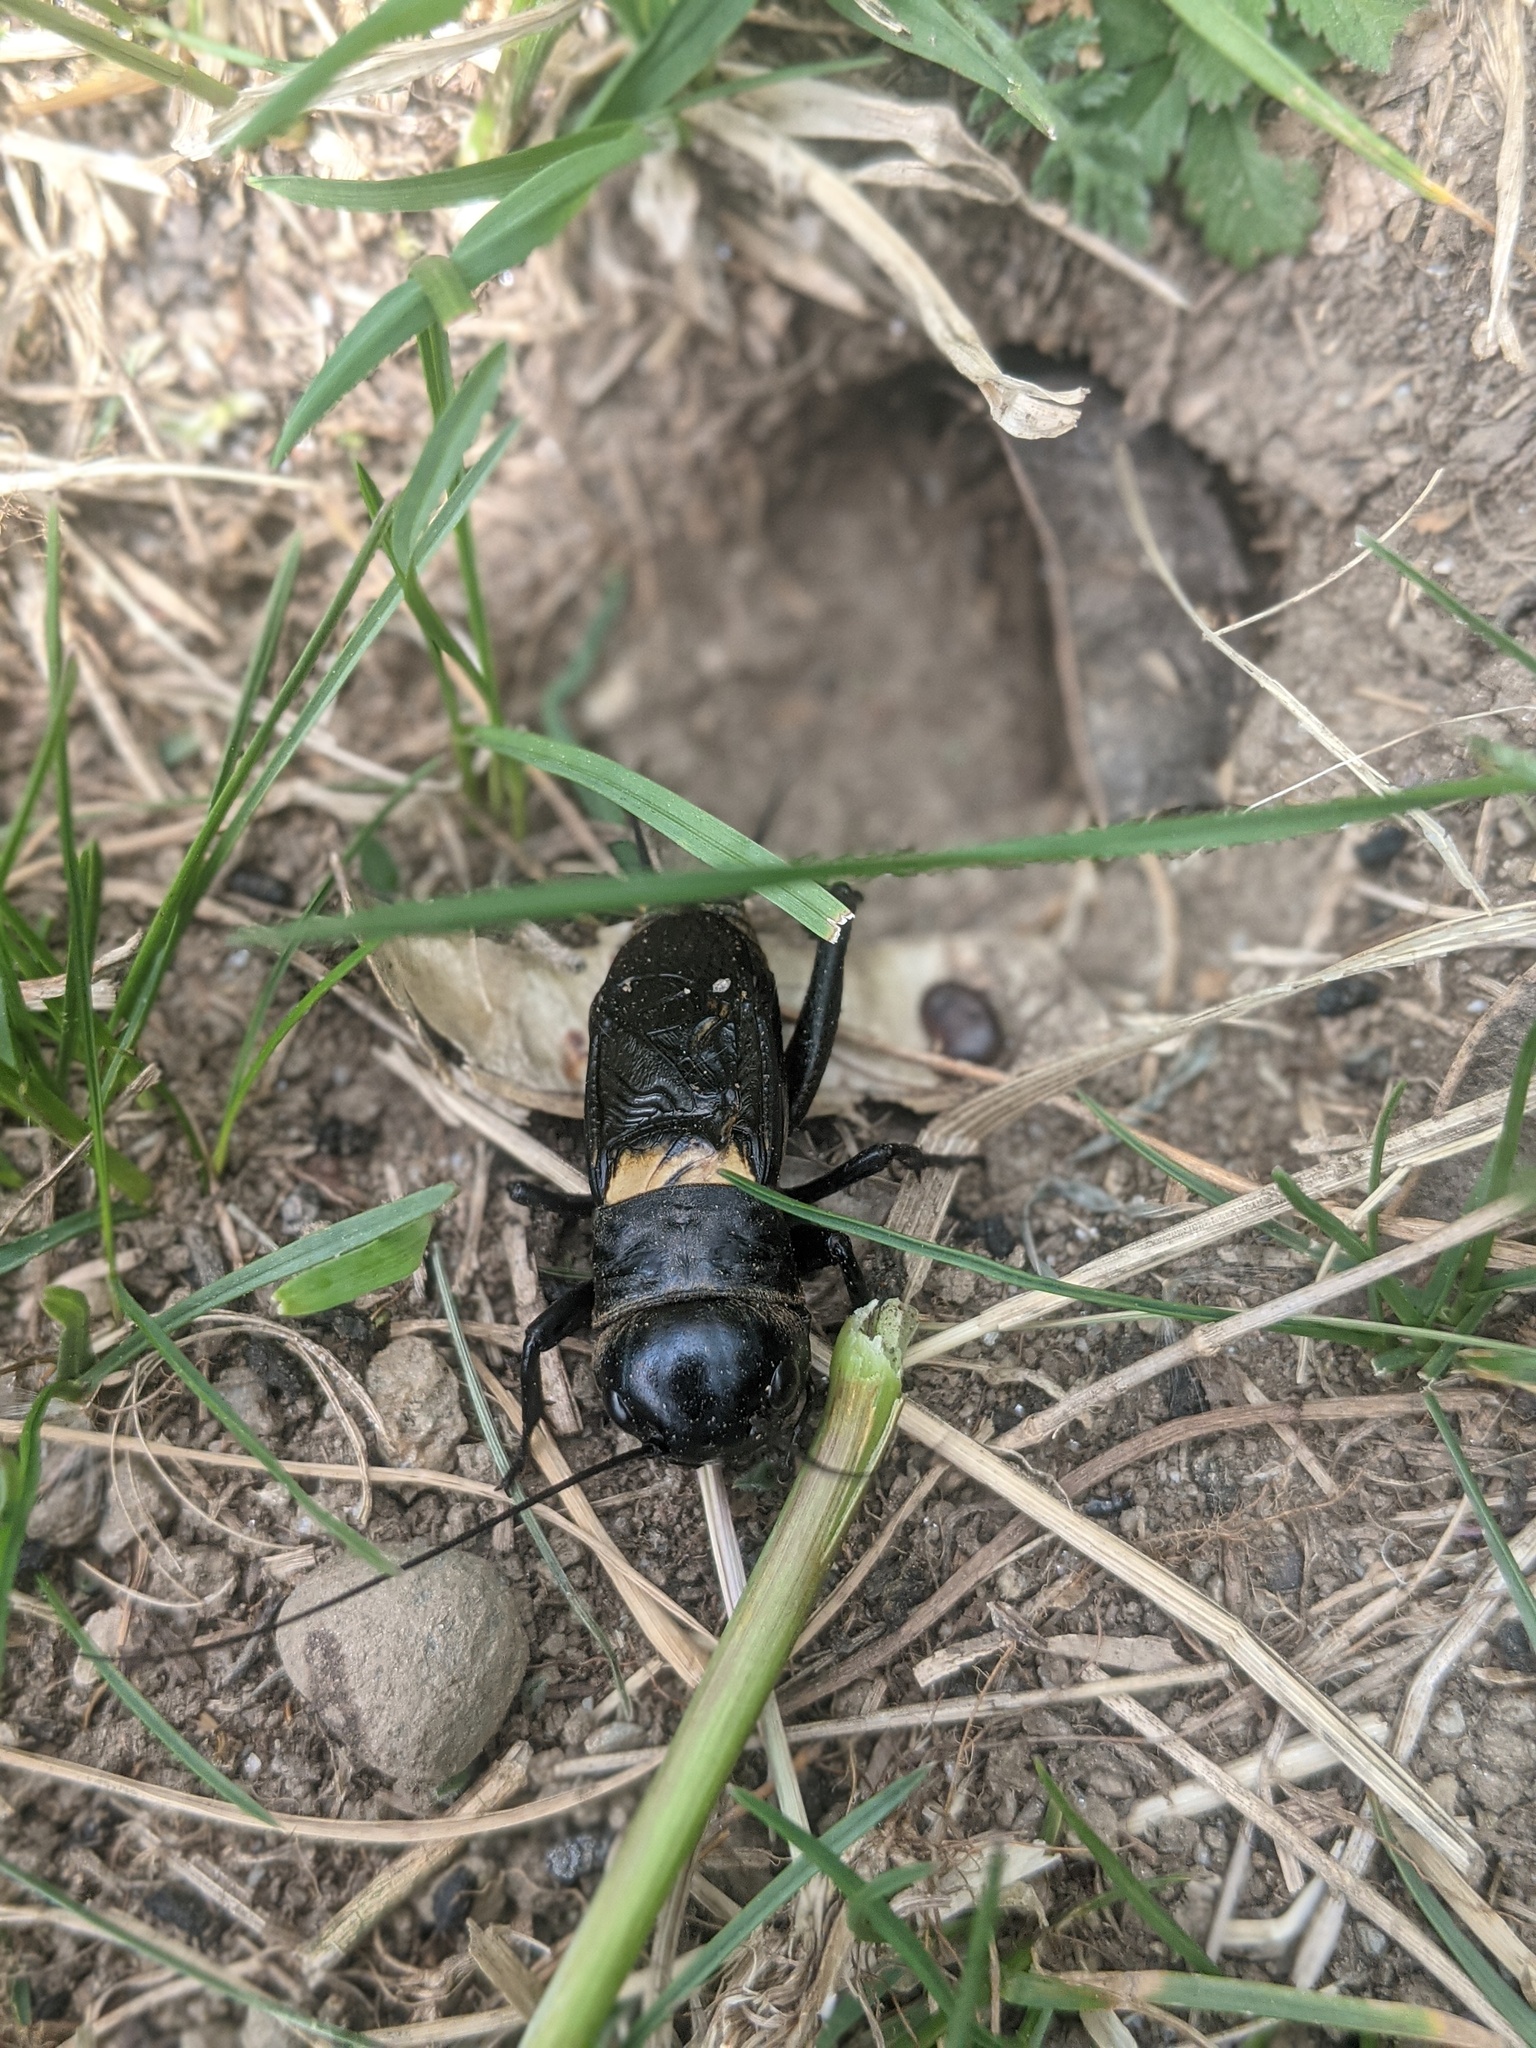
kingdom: Animalia
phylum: Arthropoda
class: Insecta
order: Orthoptera
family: Gryllidae
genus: Gryllus
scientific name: Gryllus campestris
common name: Field cricket
